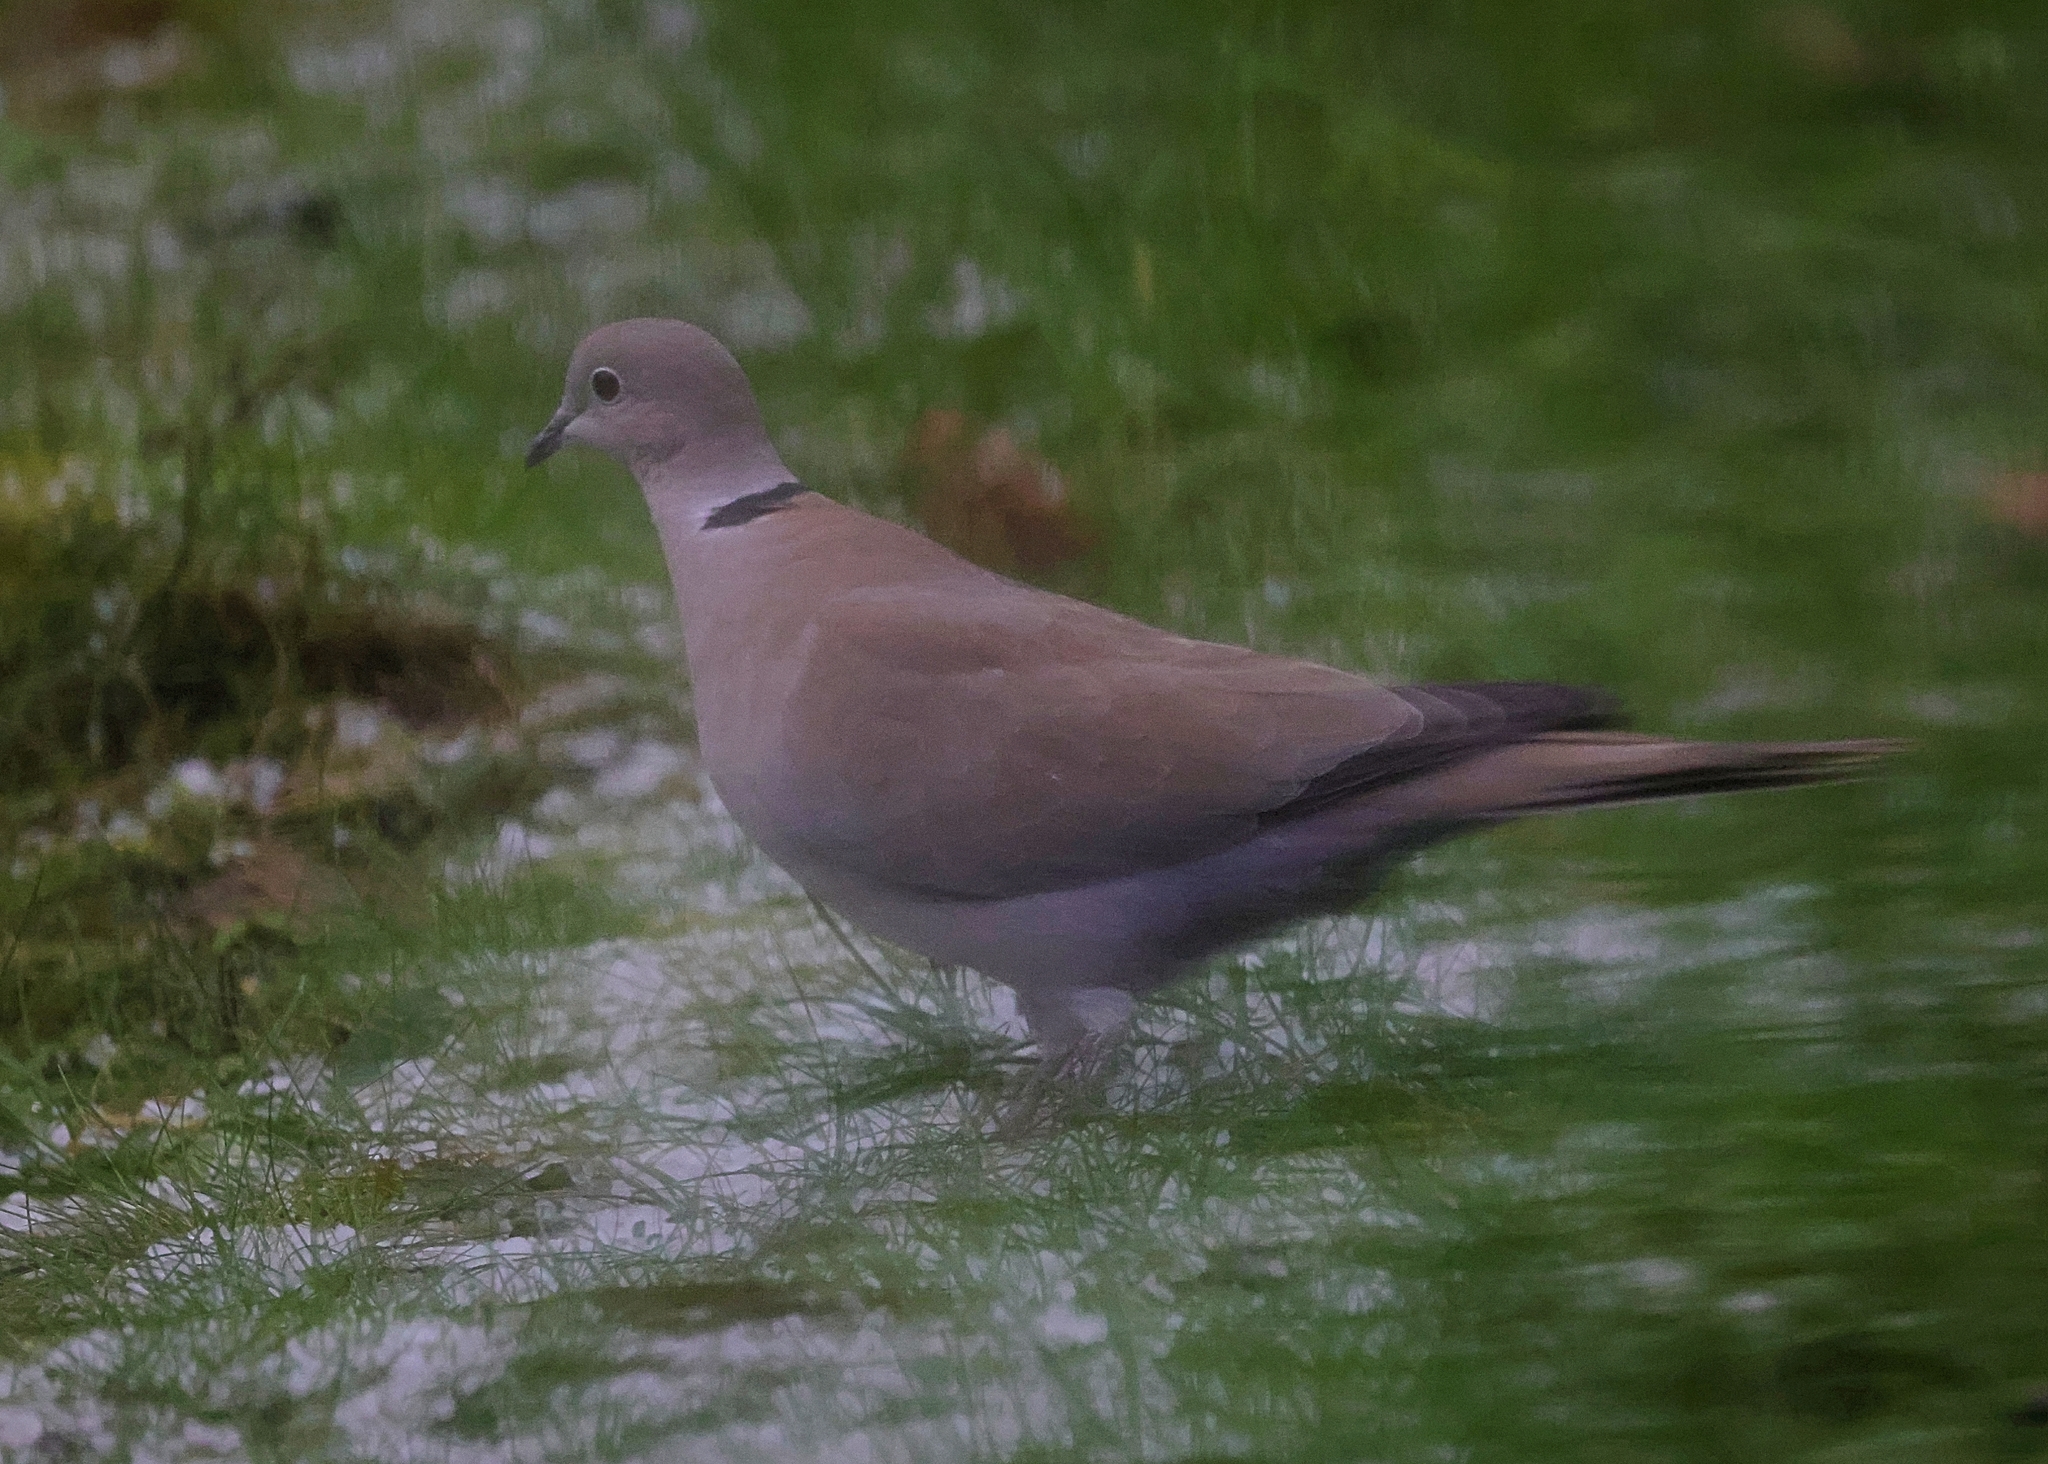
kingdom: Animalia
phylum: Chordata
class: Aves
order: Columbiformes
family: Columbidae
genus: Streptopelia
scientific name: Streptopelia decaocto
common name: Eurasian collared dove
